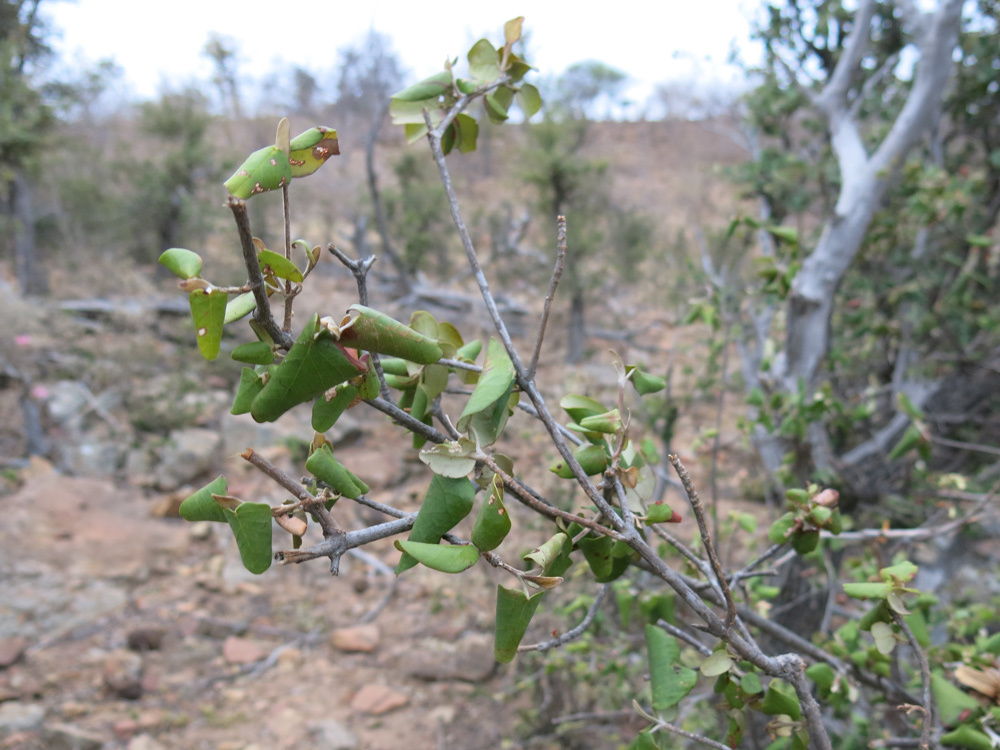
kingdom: Plantae
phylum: Tracheophyta
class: Magnoliopsida
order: Malpighiales
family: Picrodendraceae
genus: Androstachys
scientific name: Androstachys johnsonii
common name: Lebombo ironwood
